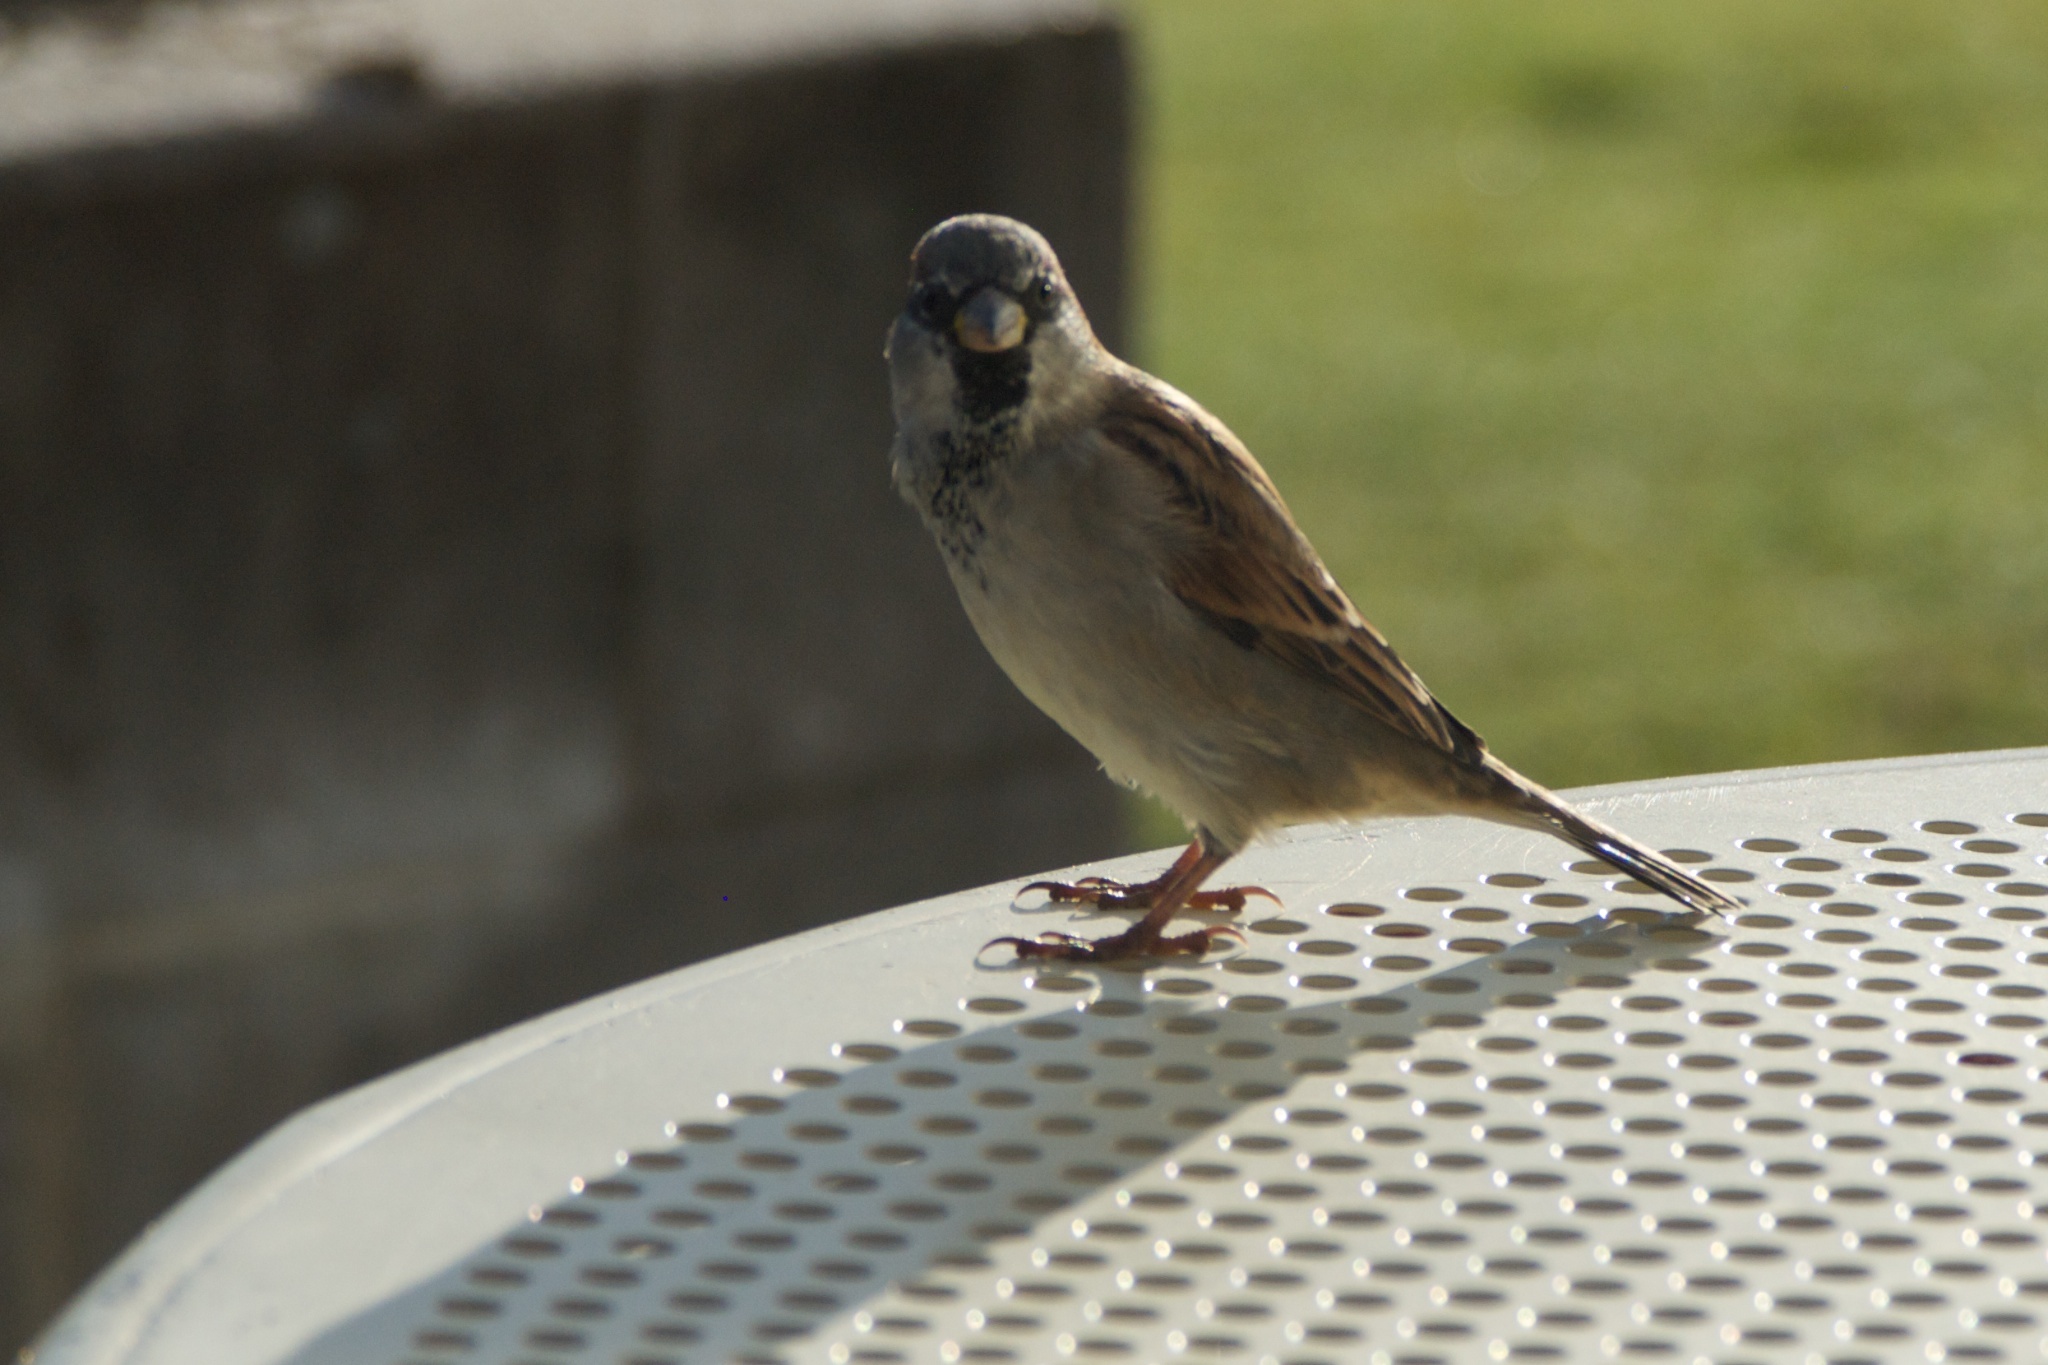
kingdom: Animalia
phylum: Chordata
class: Aves
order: Passeriformes
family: Passeridae
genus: Passer
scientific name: Passer domesticus
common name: House sparrow
